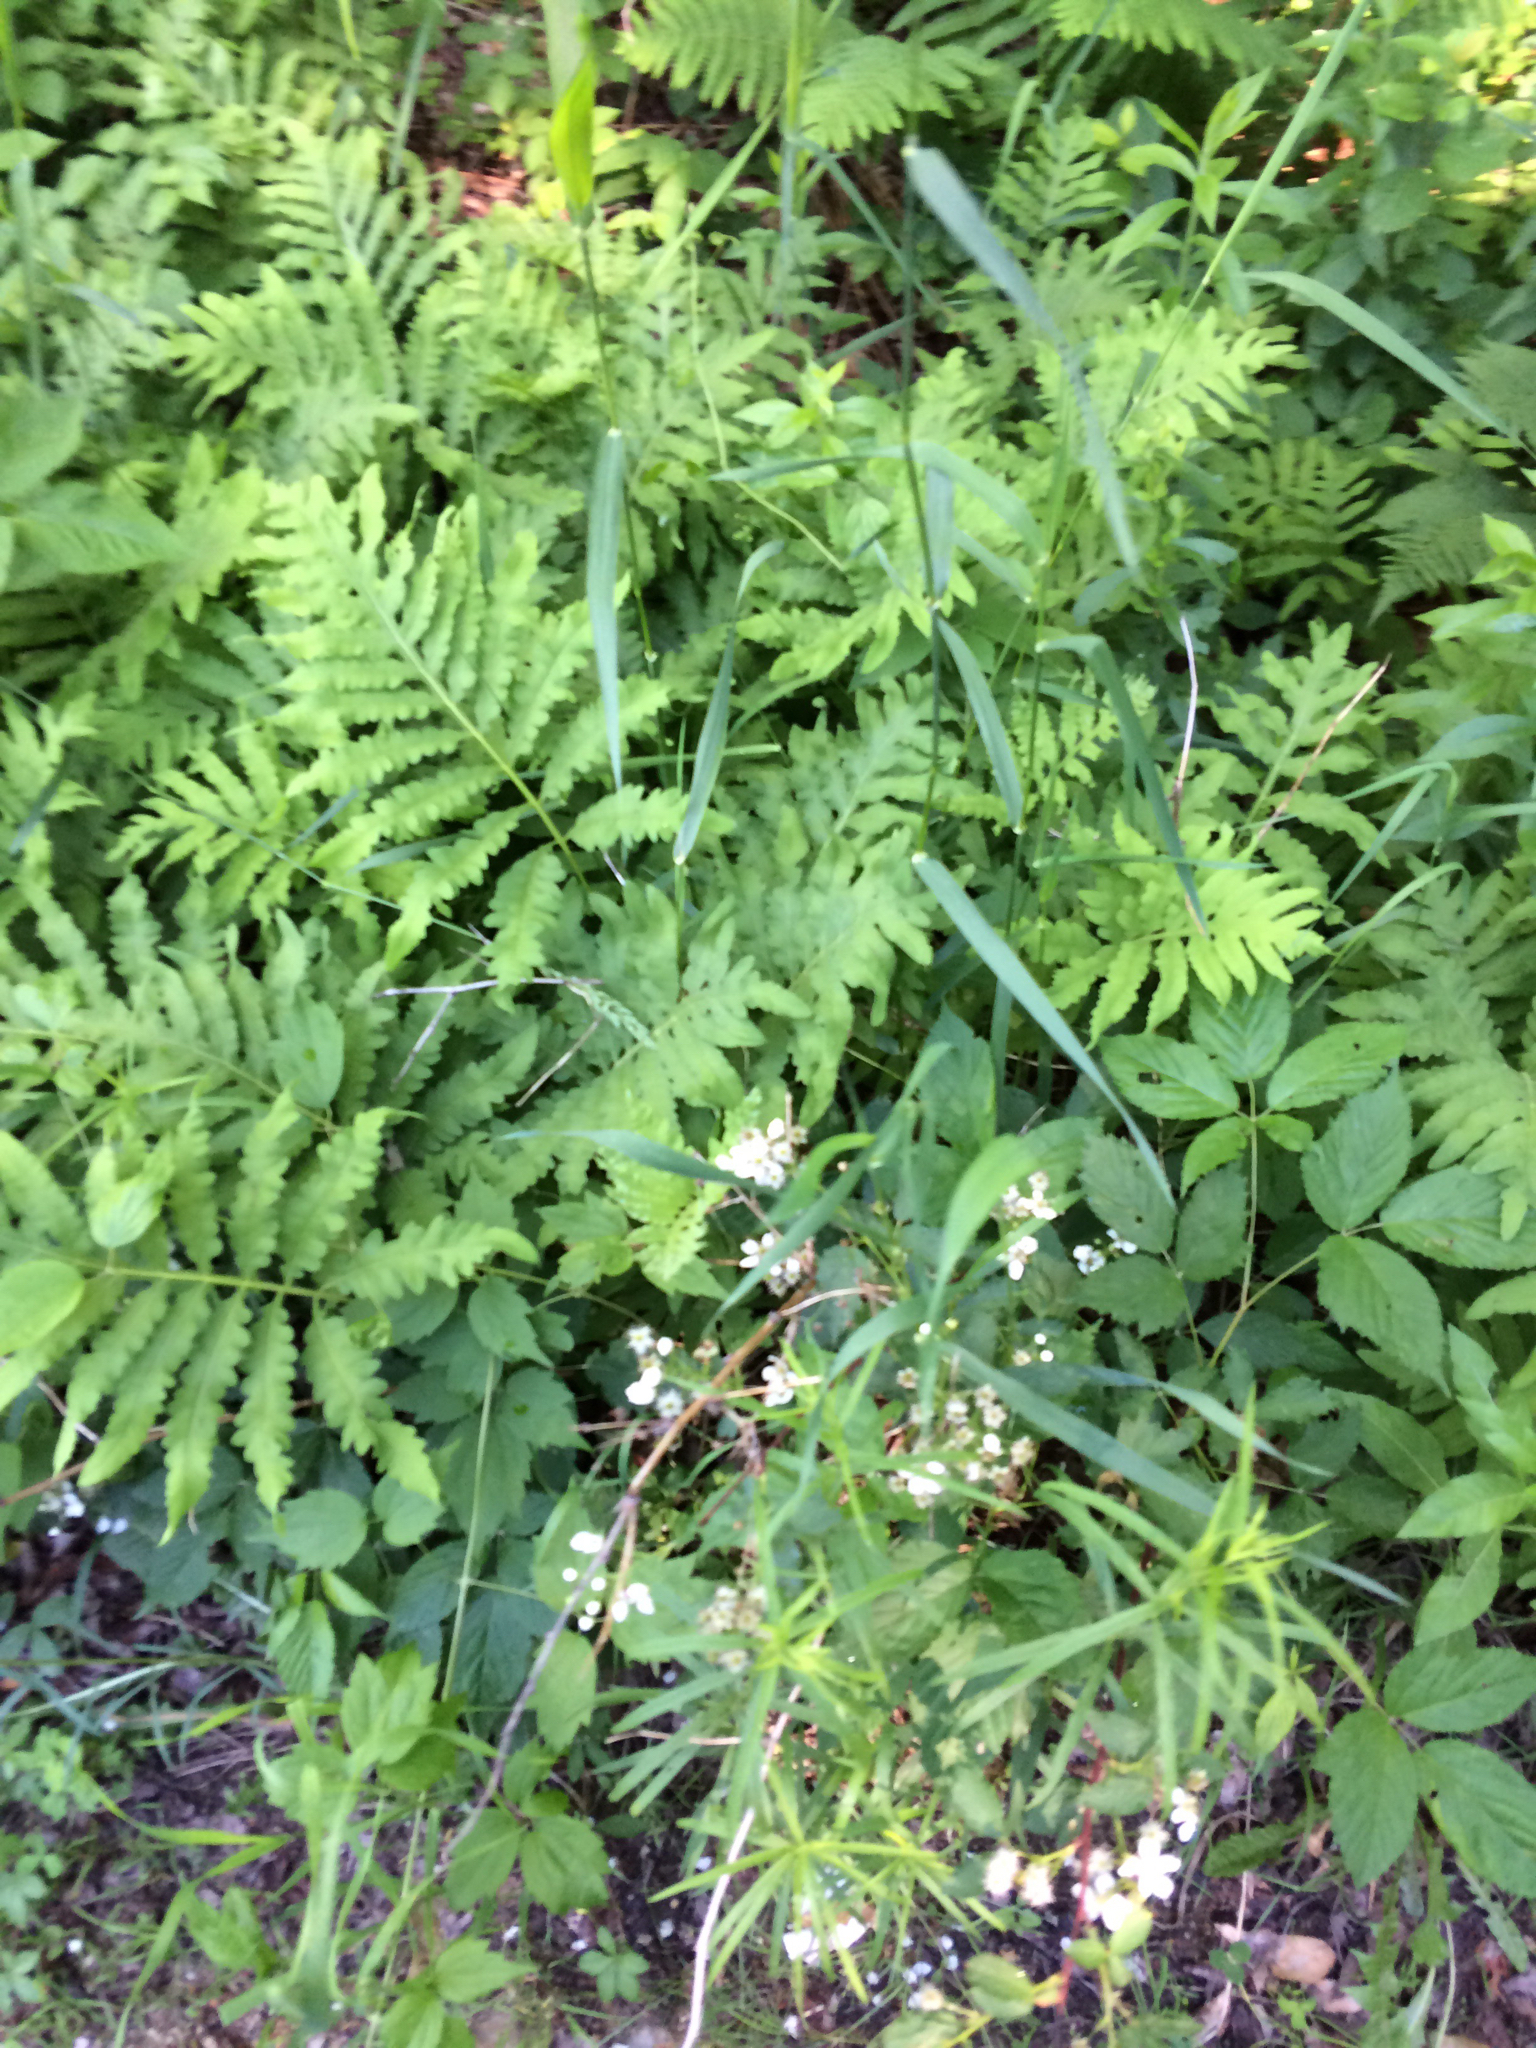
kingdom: Plantae
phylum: Tracheophyta
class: Polypodiopsida
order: Polypodiales
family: Onocleaceae
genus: Onoclea
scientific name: Onoclea sensibilis
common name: Sensitive fern
